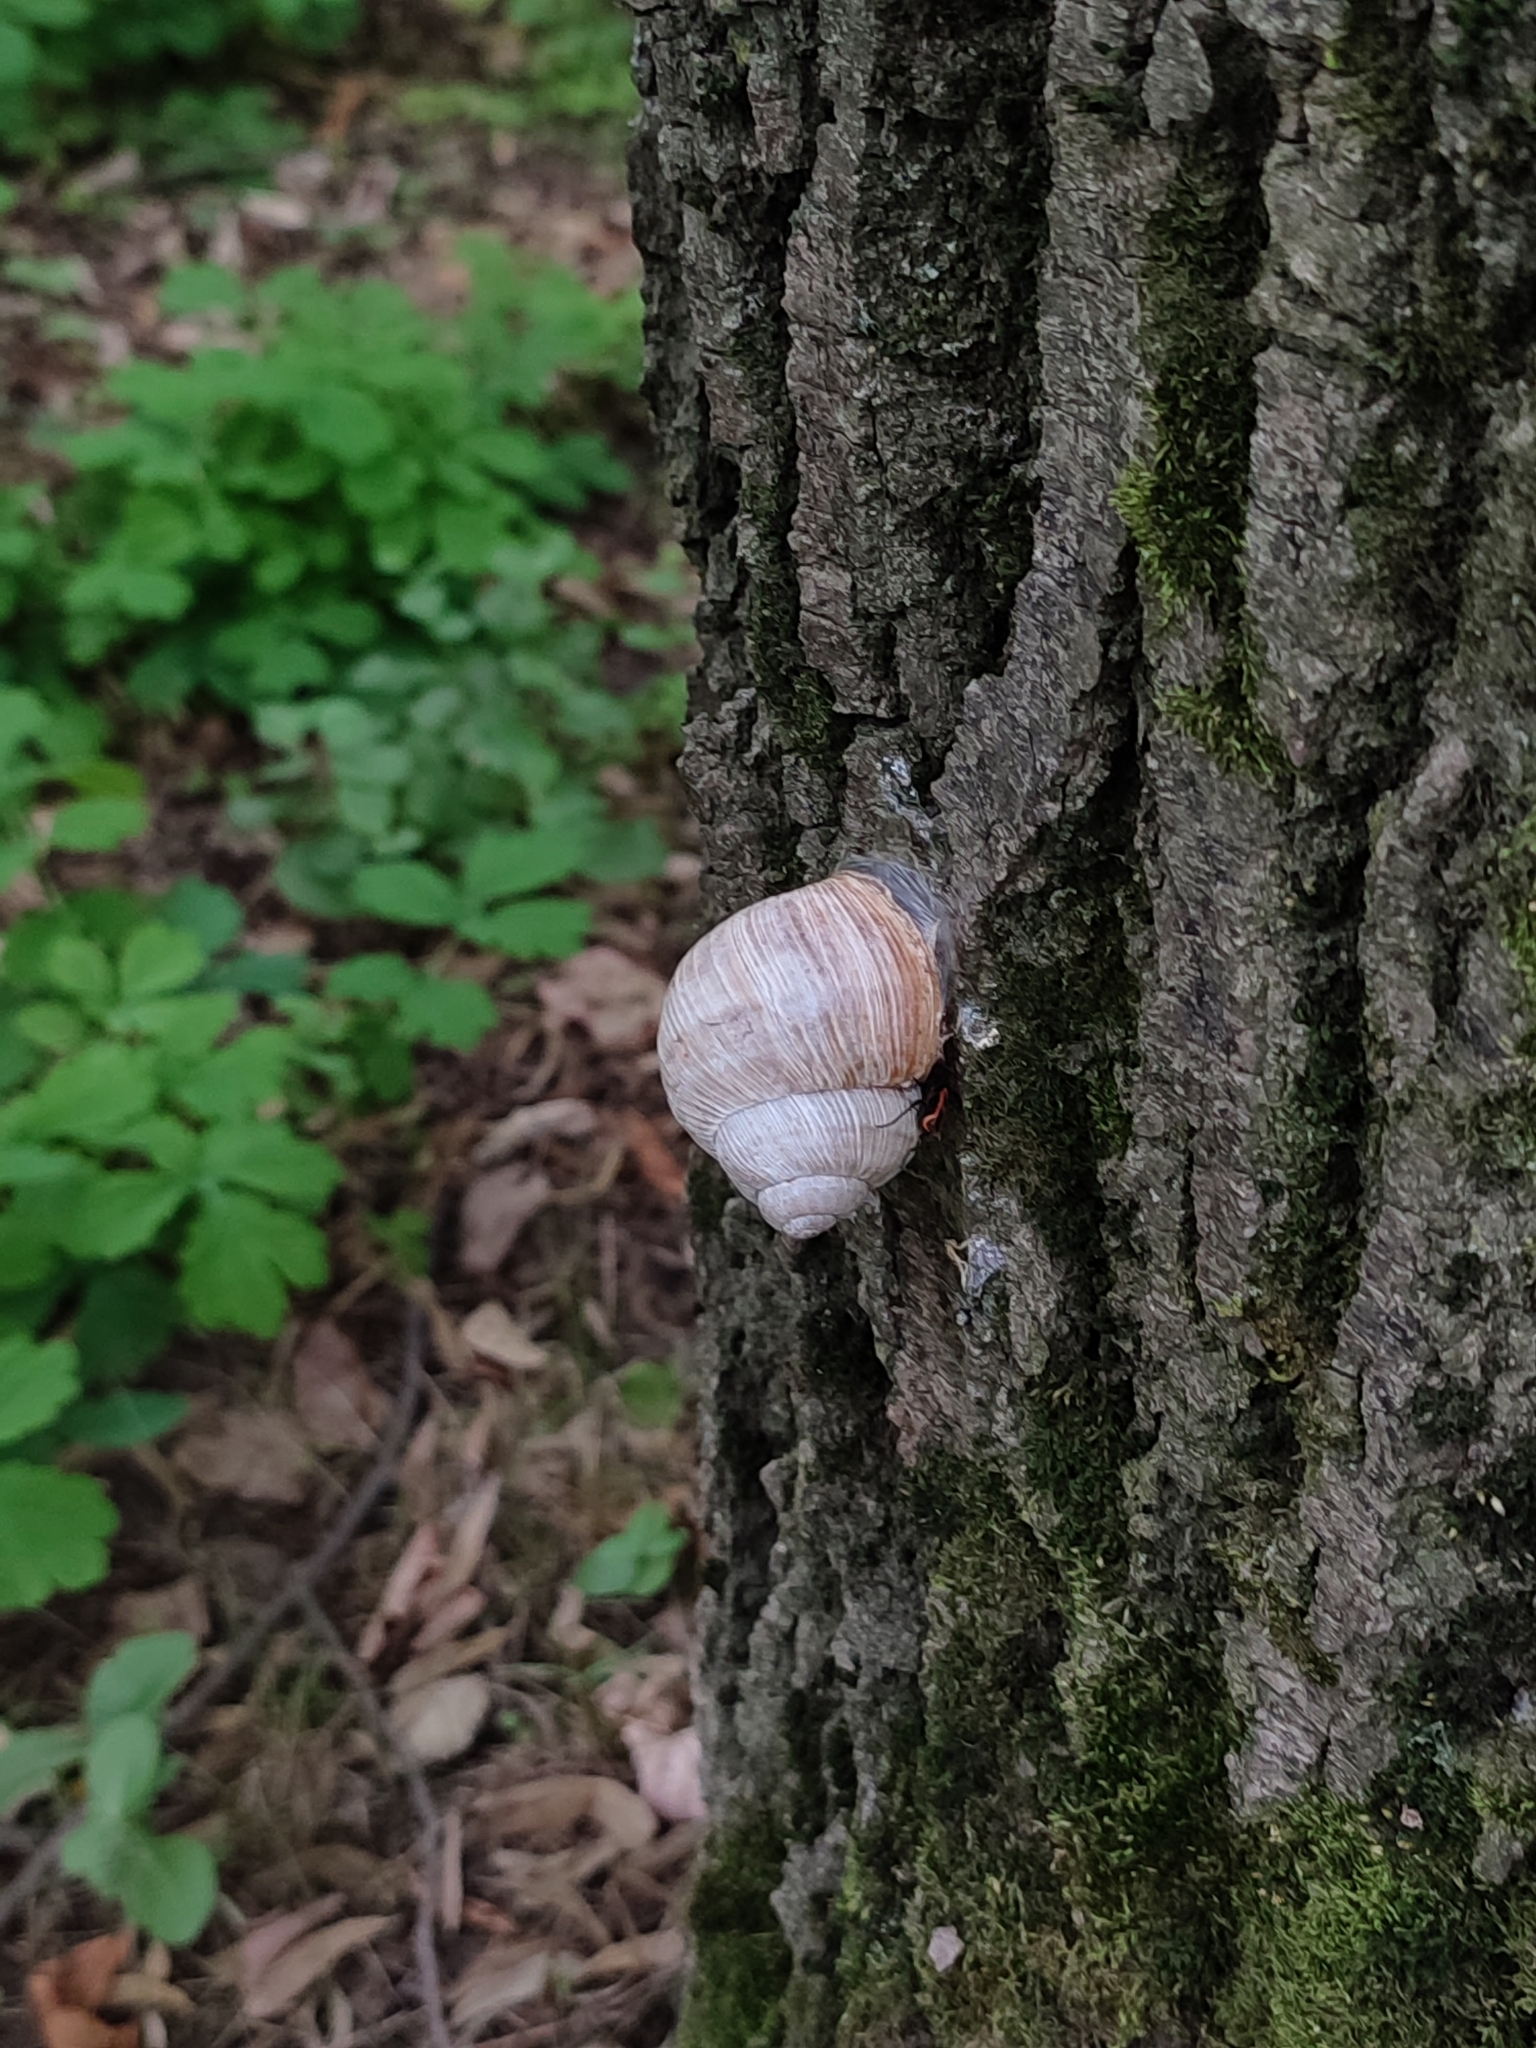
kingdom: Animalia
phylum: Mollusca
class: Gastropoda
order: Stylommatophora
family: Helicidae
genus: Helix
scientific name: Helix pomatia
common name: Roman snail
